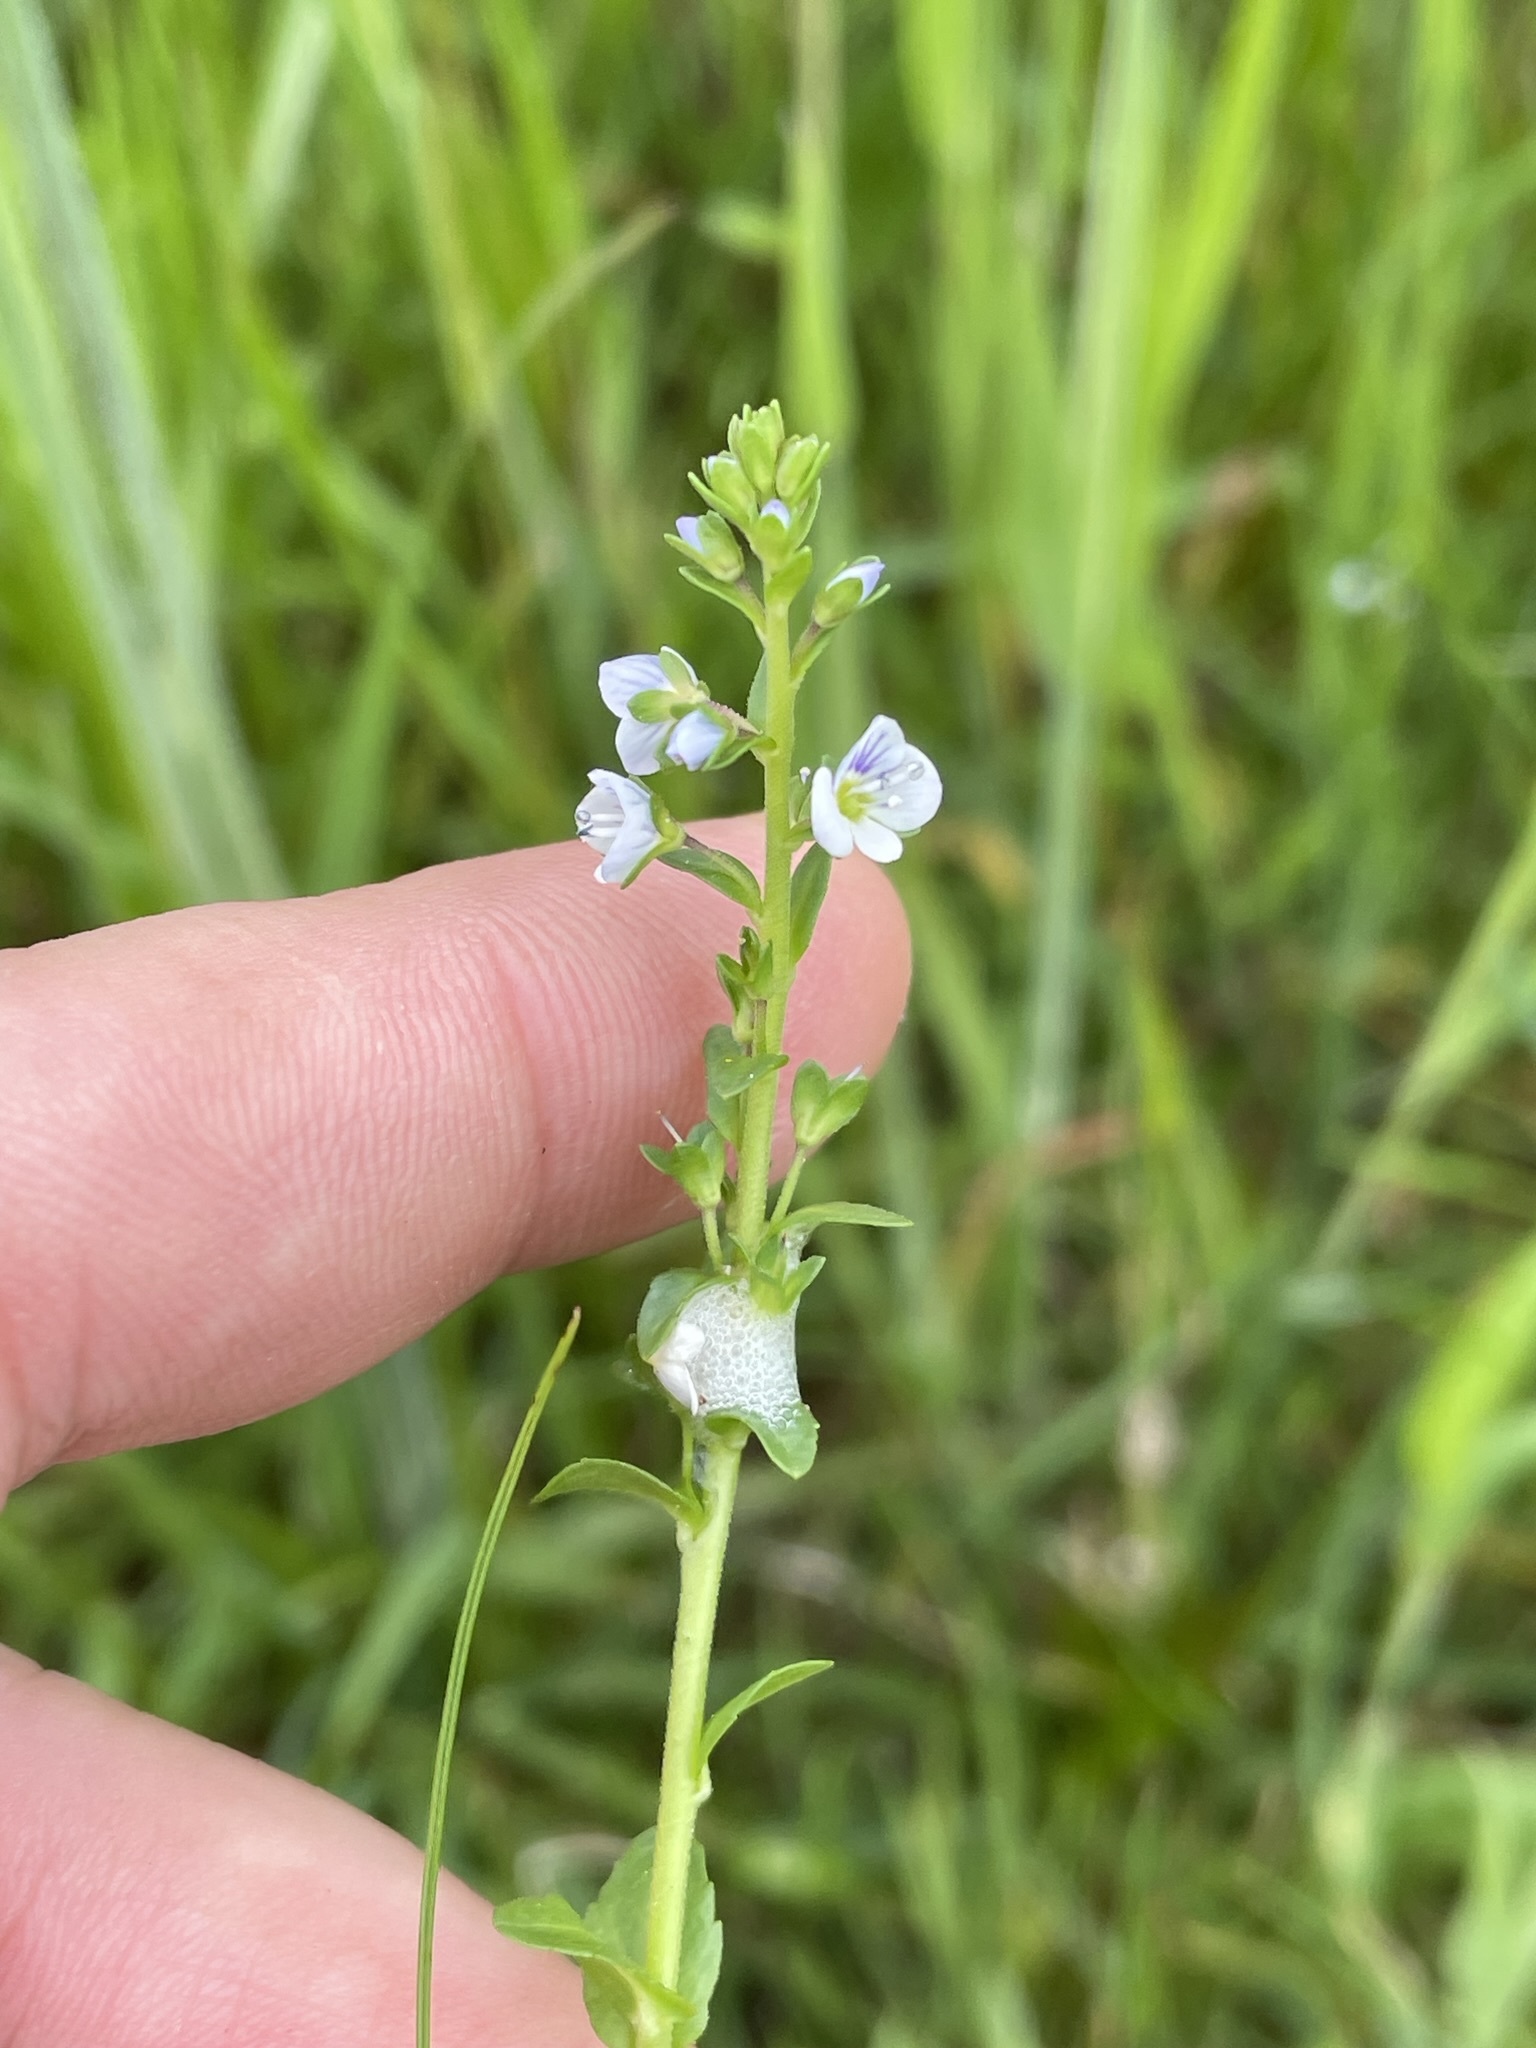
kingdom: Plantae
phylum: Tracheophyta
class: Magnoliopsida
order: Lamiales
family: Plantaginaceae
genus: Veronica
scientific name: Veronica serpyllifolia
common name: Thyme-leaved speedwell
